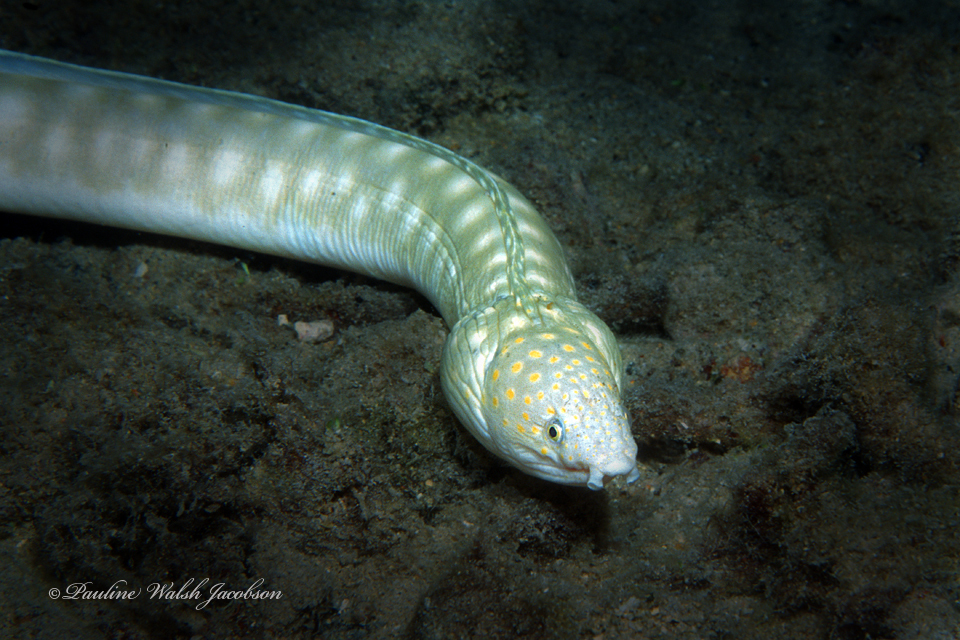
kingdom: Animalia
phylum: Chordata
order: Anguilliformes
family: Ophichthidae
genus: Myrichthys
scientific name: Myrichthys breviceps
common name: Sharptail eel
